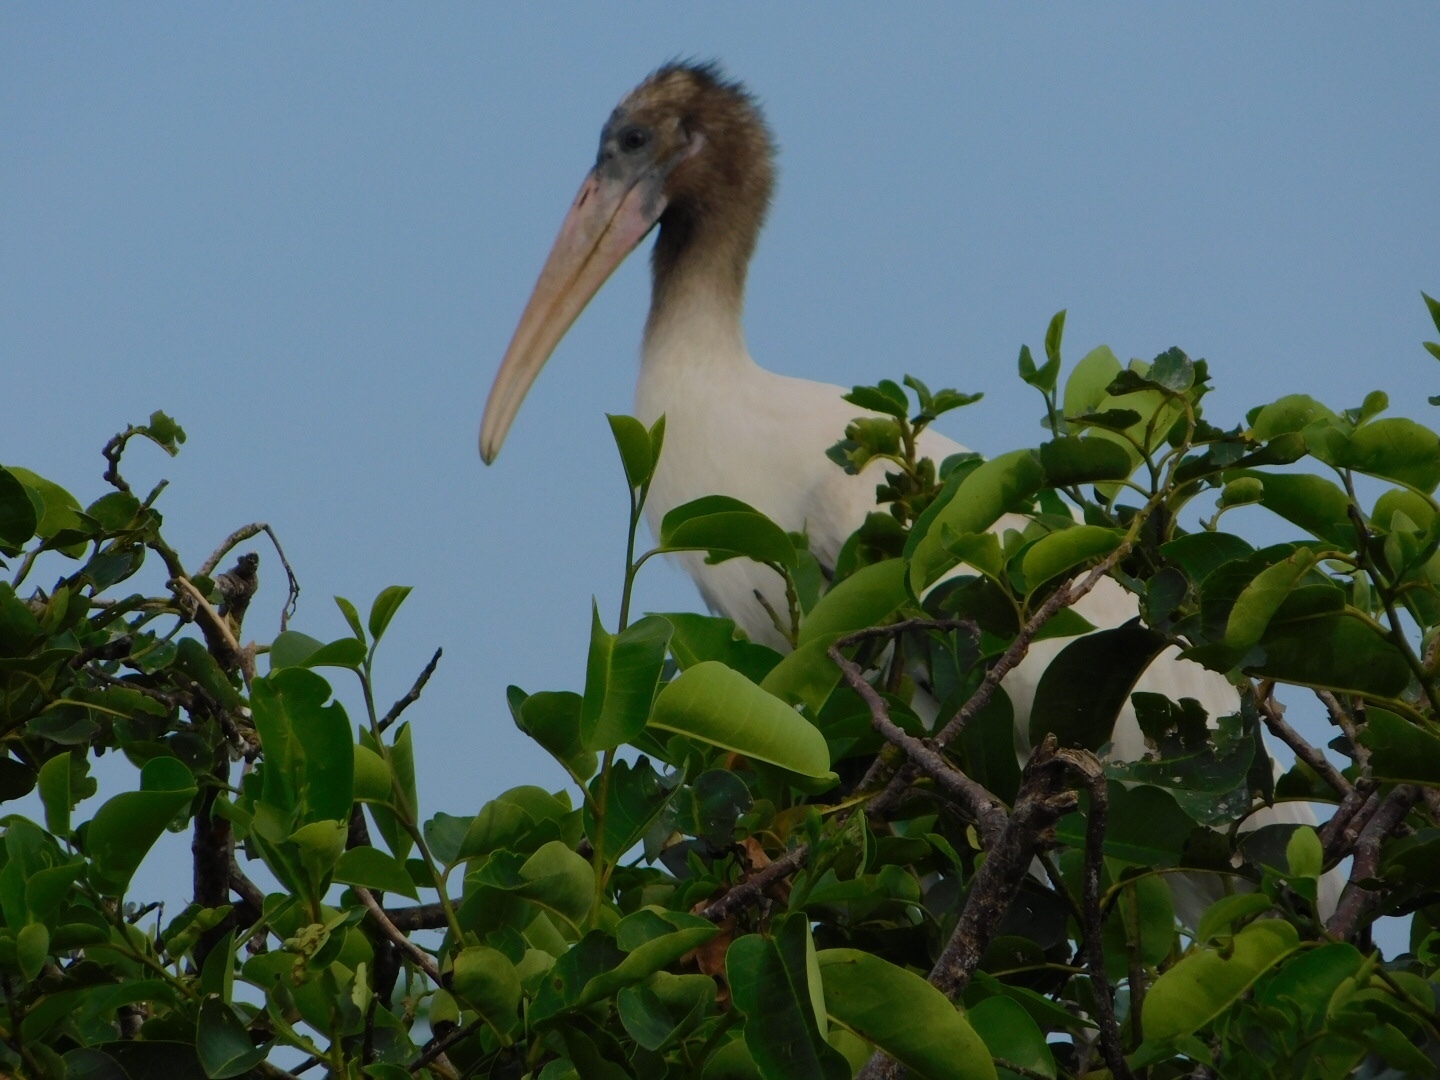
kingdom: Animalia
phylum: Chordata
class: Aves
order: Ciconiiformes
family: Ciconiidae
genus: Mycteria
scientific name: Mycteria americana
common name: Wood stork
